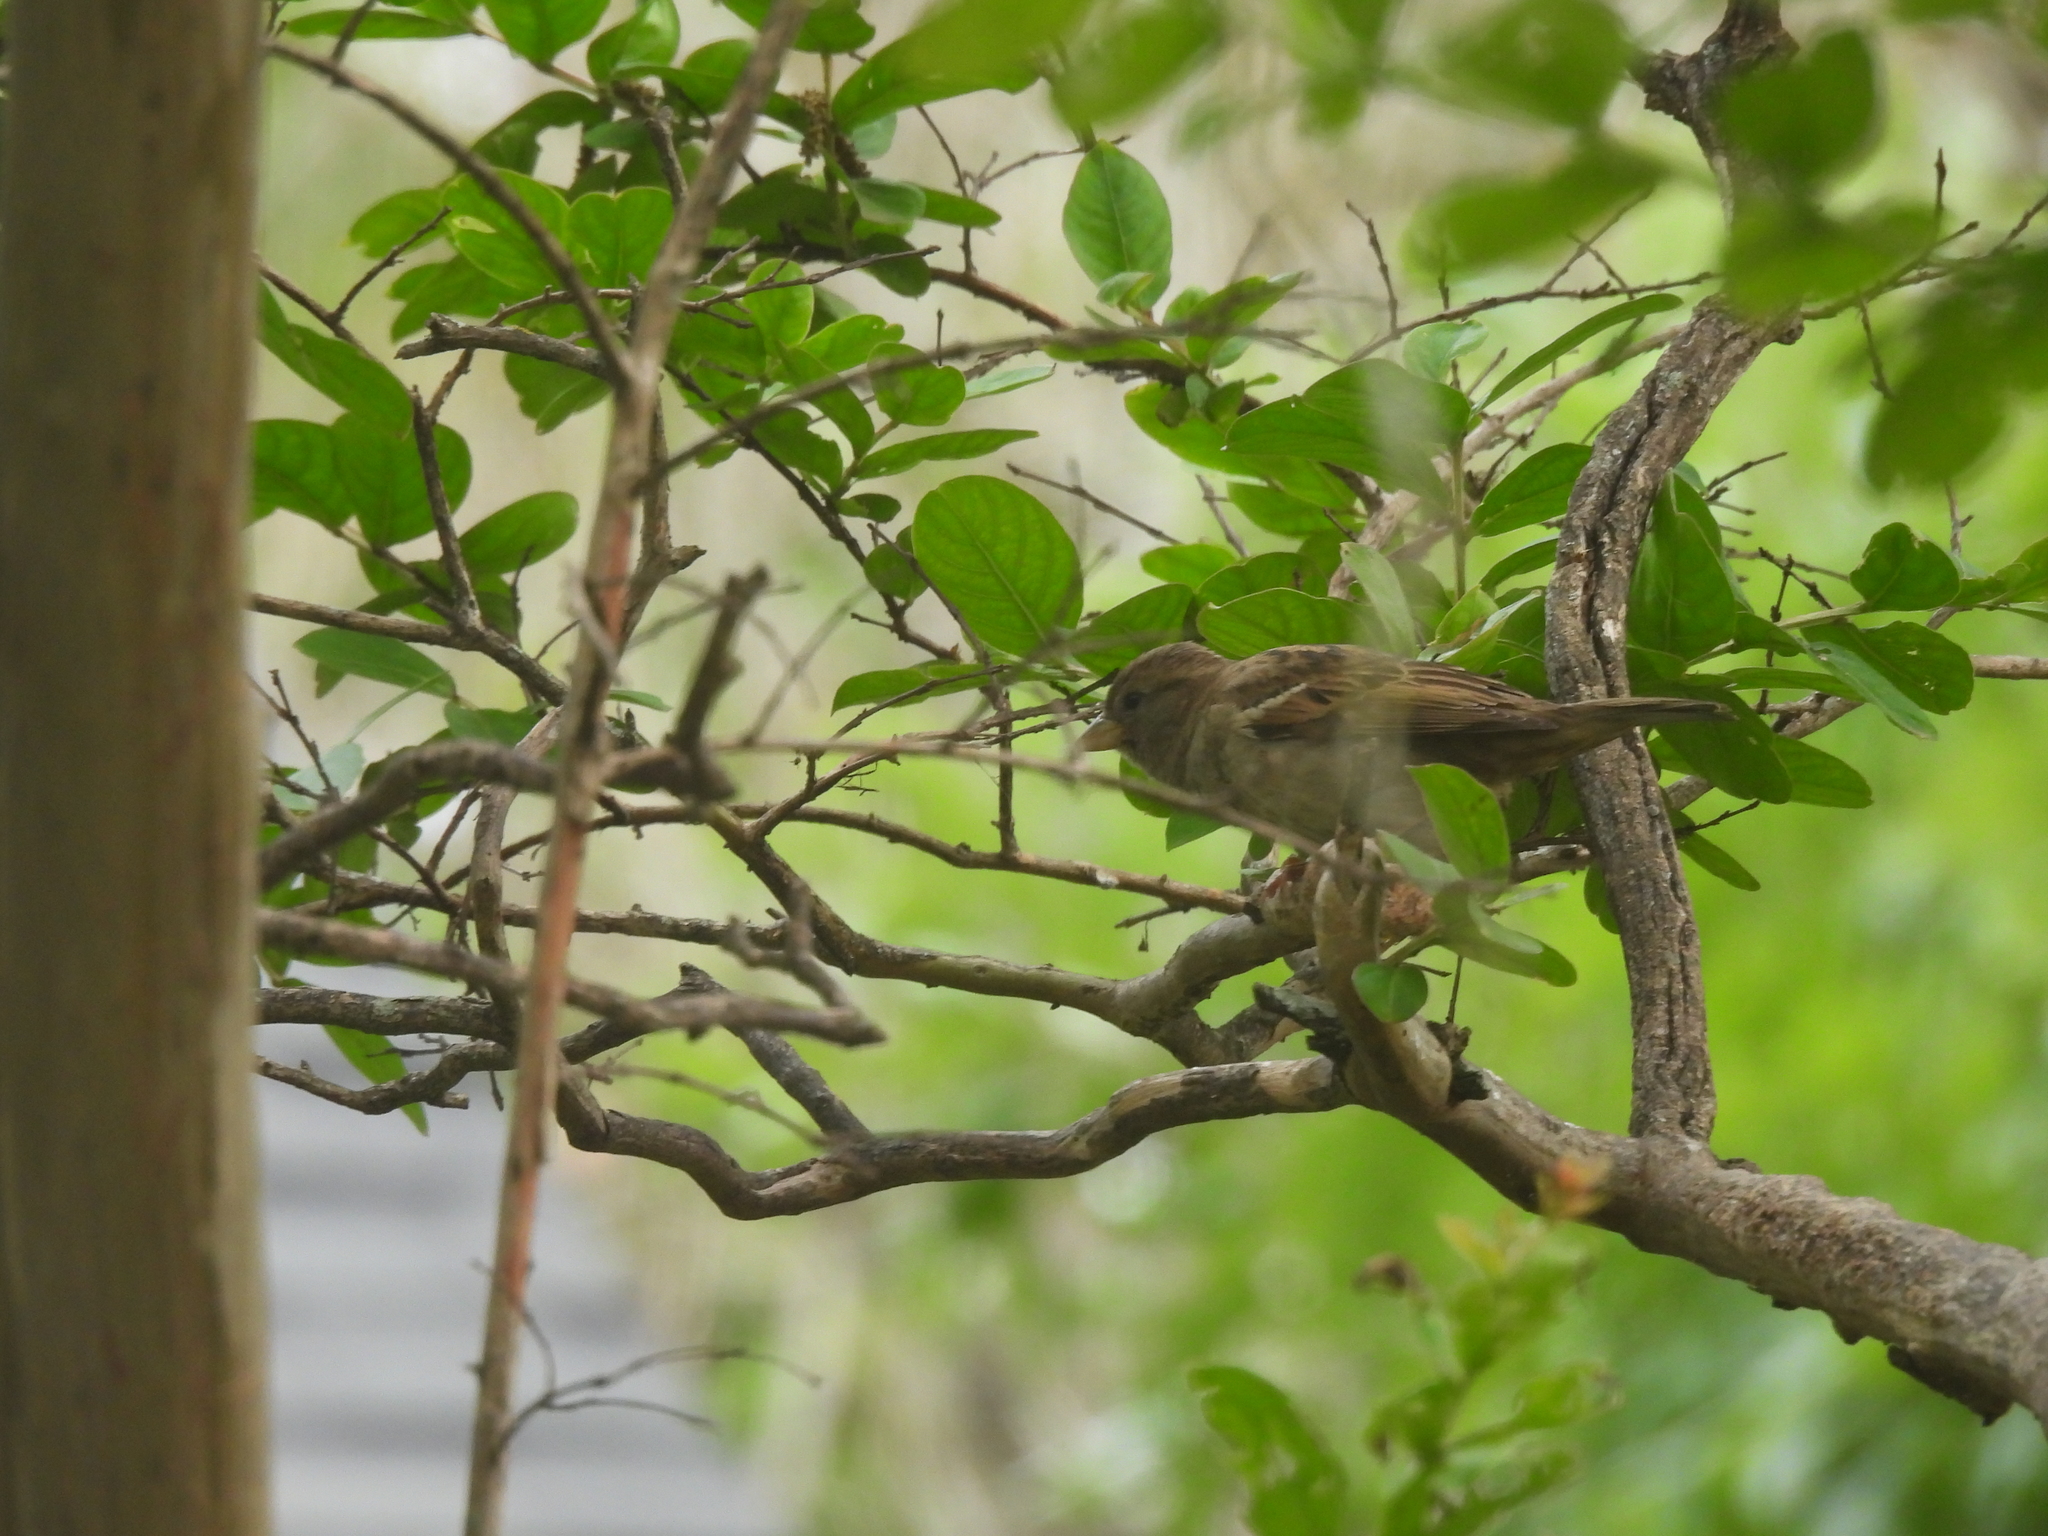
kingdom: Animalia
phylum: Chordata
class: Aves
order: Passeriformes
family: Passeridae
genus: Passer
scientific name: Passer domesticus
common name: House sparrow
